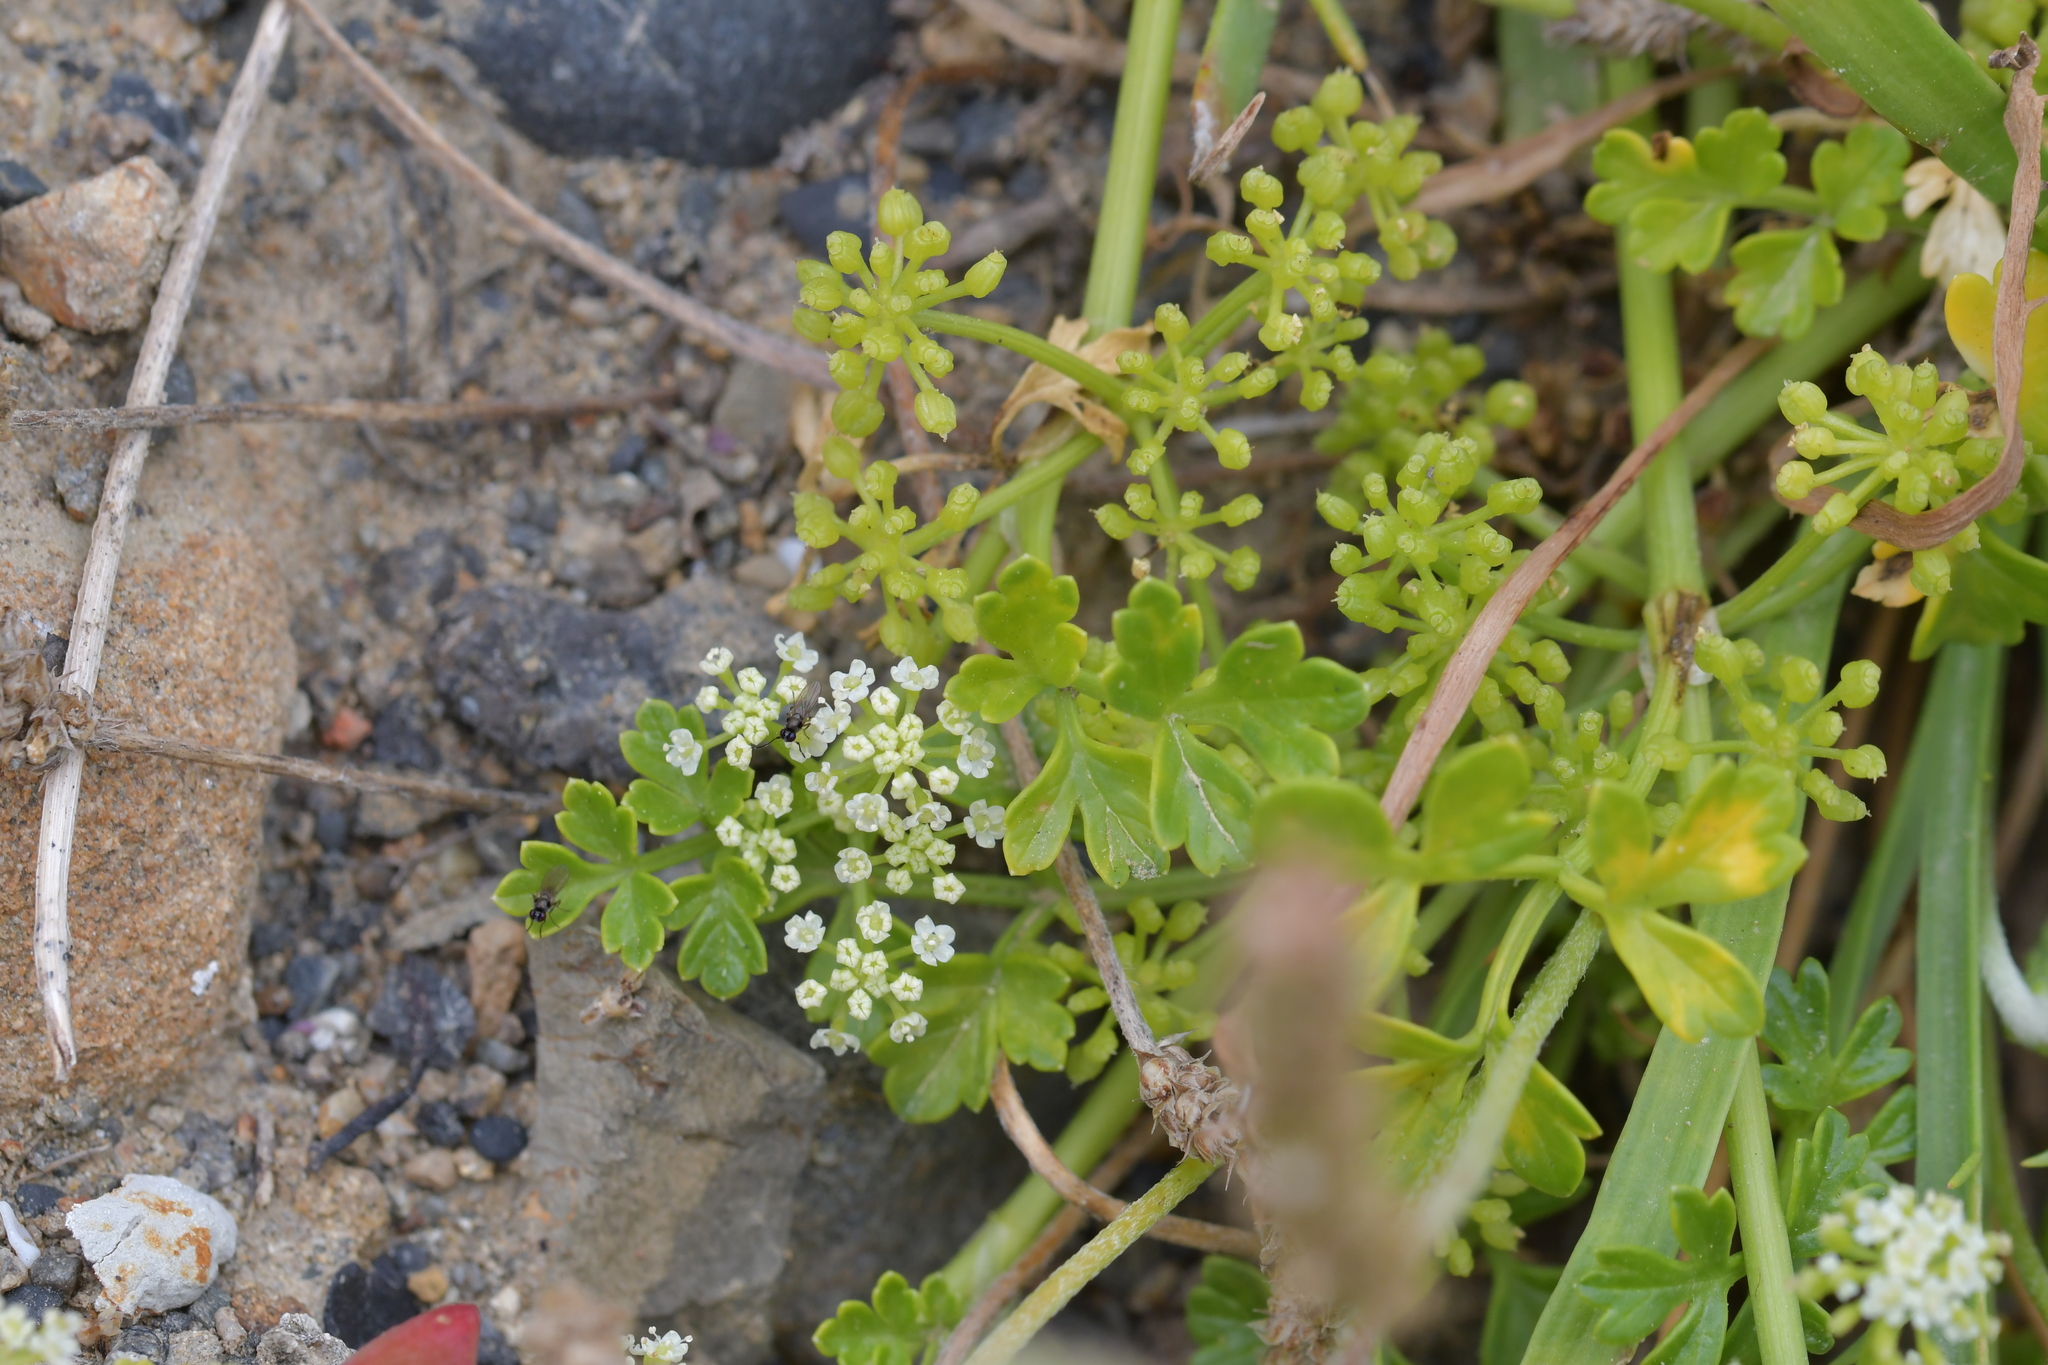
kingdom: Plantae
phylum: Tracheophyta
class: Magnoliopsida
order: Apiales
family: Apiaceae
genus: Apium
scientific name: Apium prostratum
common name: Prostrate marshwort
